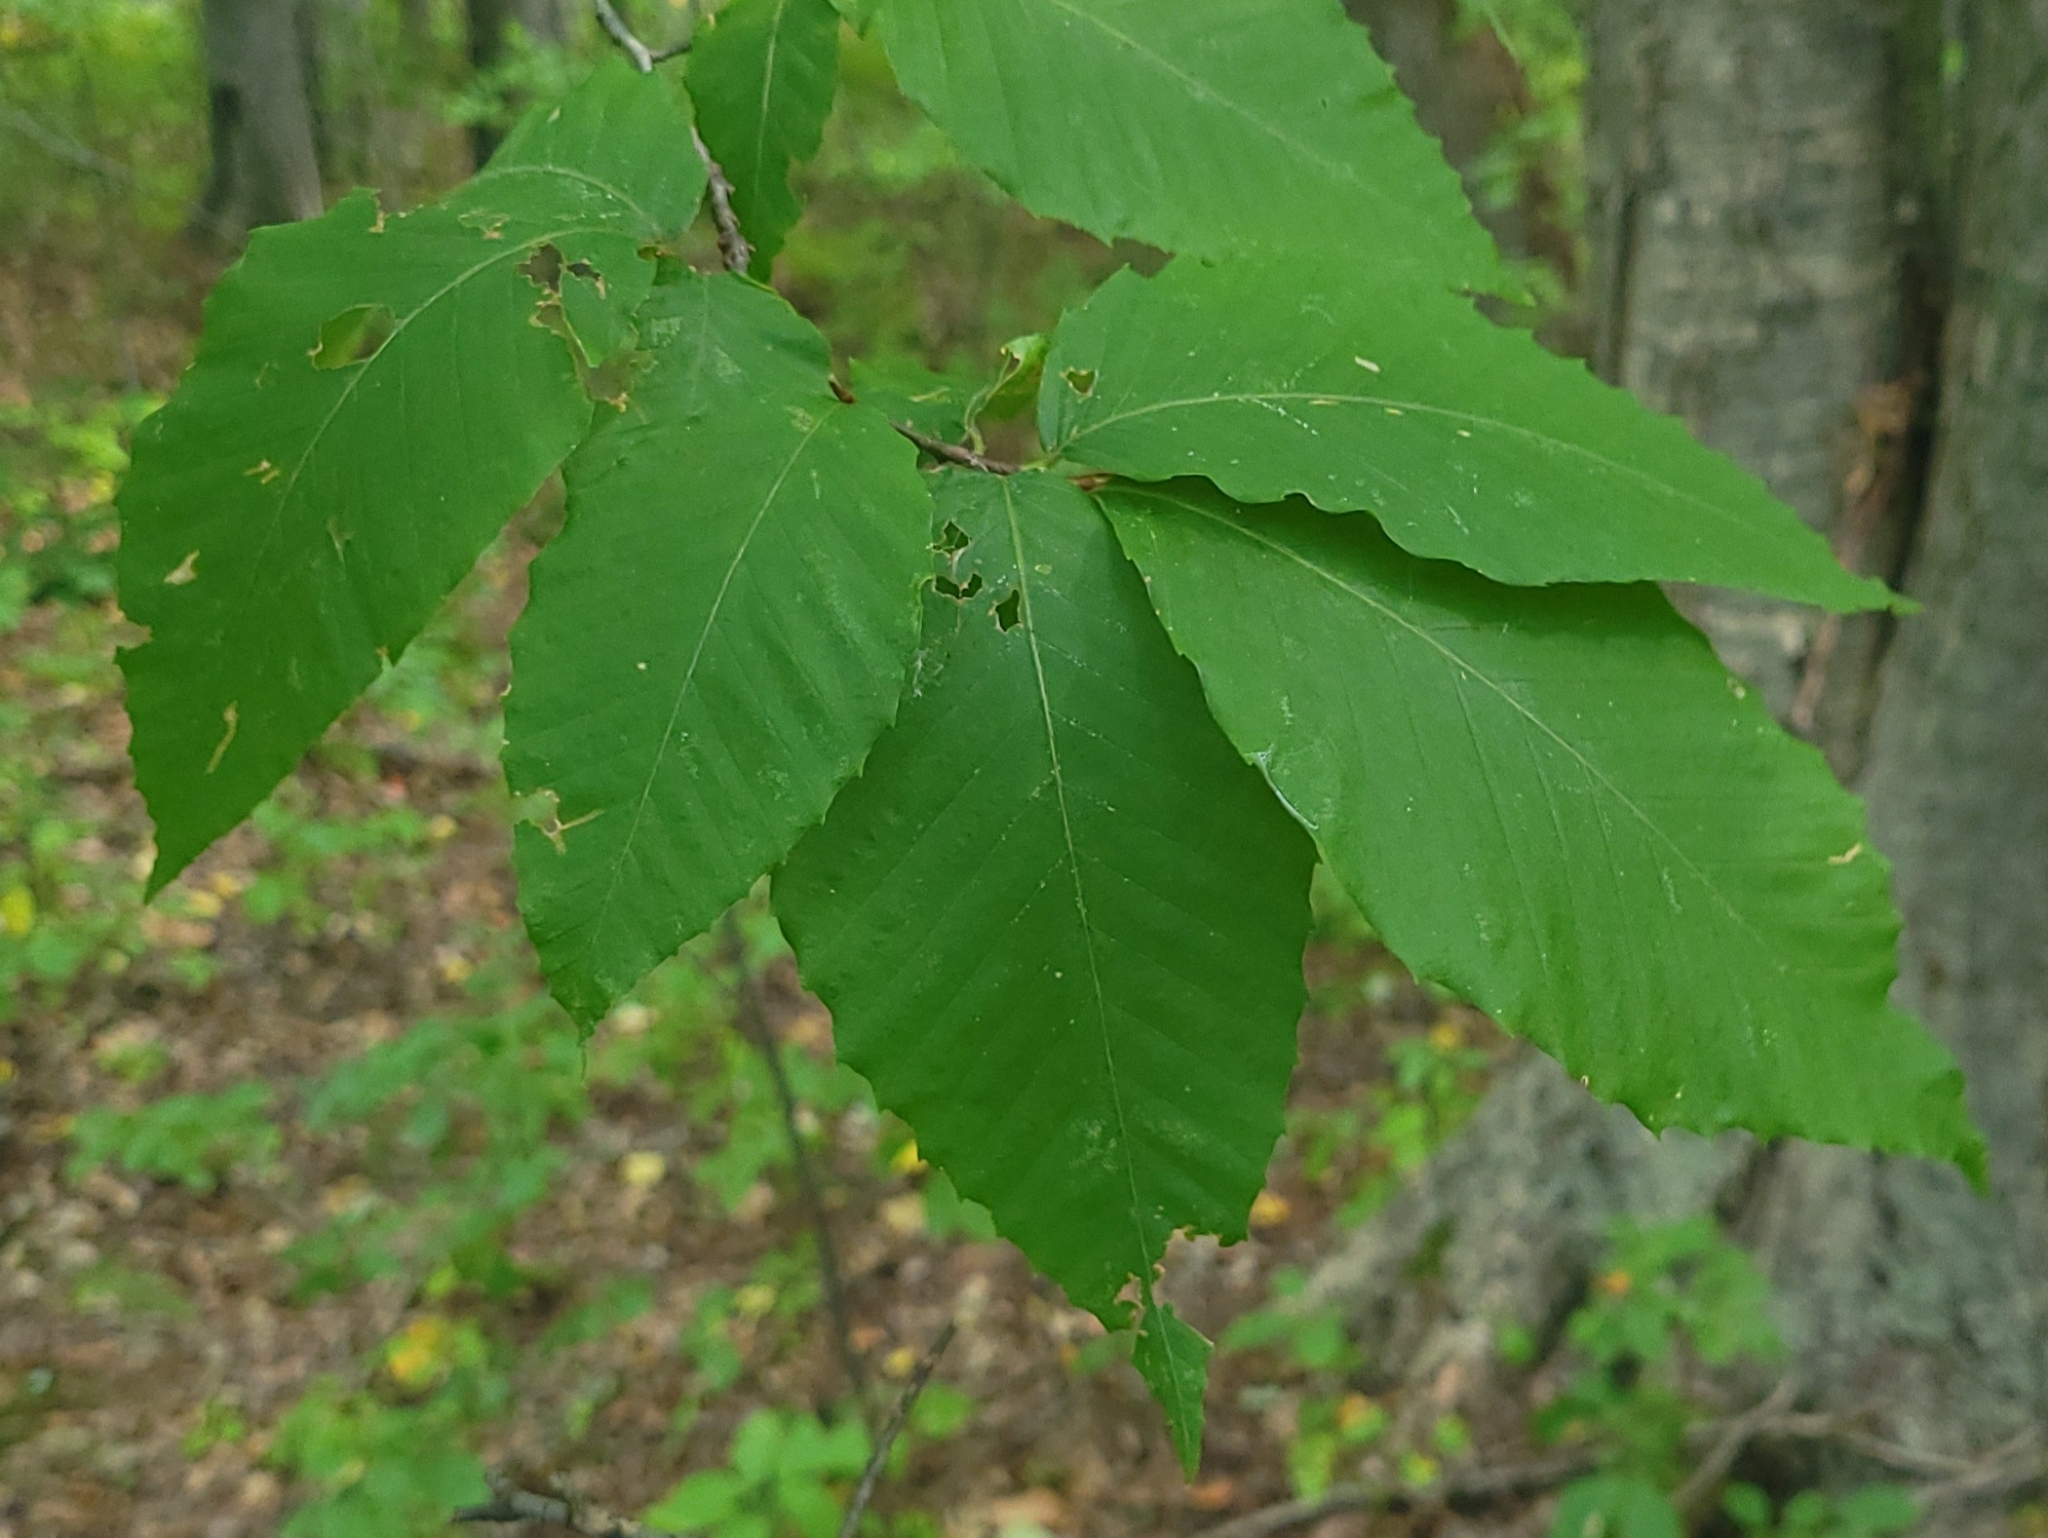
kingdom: Plantae
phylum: Tracheophyta
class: Magnoliopsida
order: Fagales
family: Fagaceae
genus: Fagus
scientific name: Fagus grandifolia
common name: American beech
